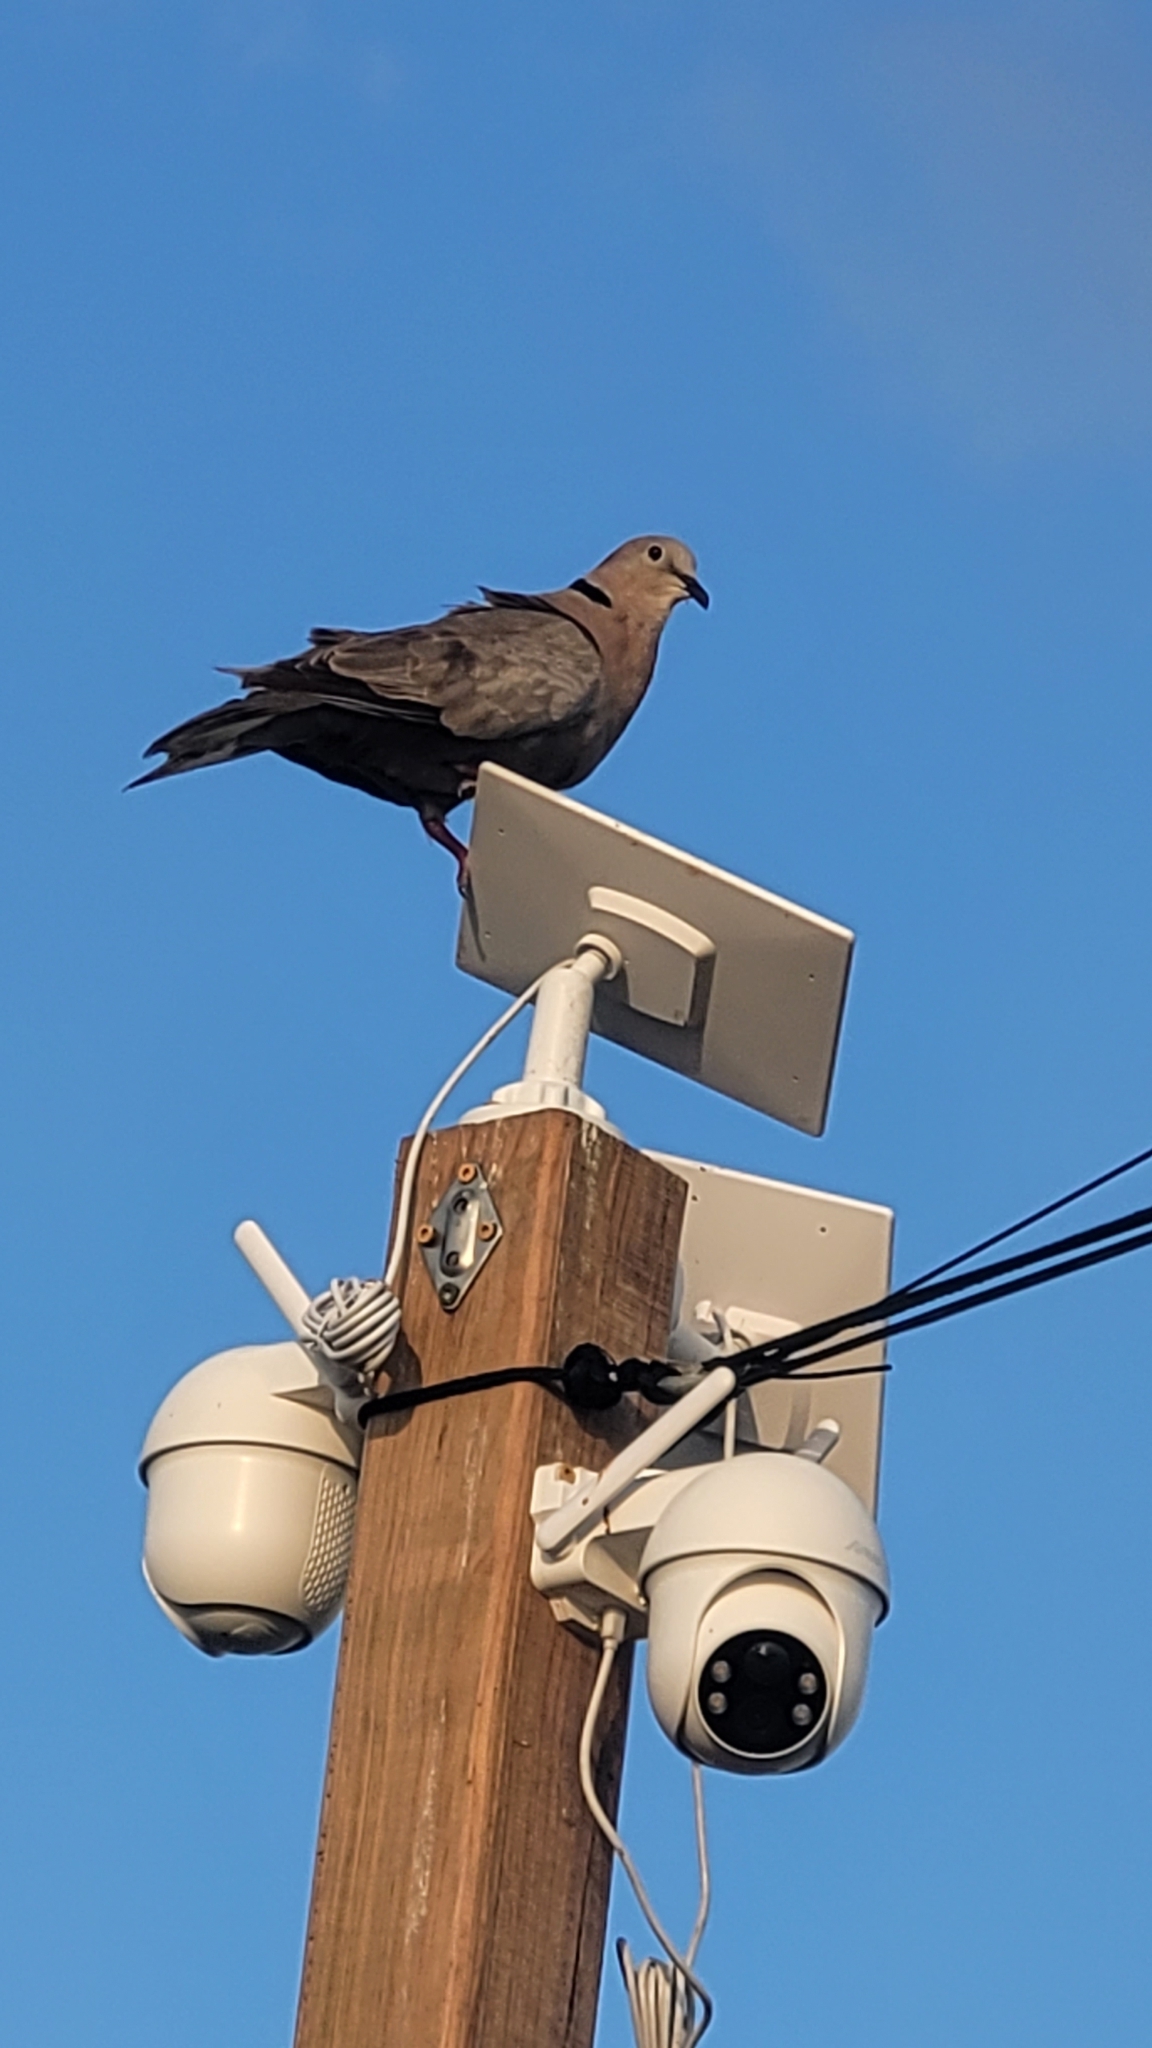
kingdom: Animalia
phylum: Chordata
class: Aves
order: Columbiformes
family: Columbidae
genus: Streptopelia
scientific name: Streptopelia decaocto
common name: Eurasian collared dove
